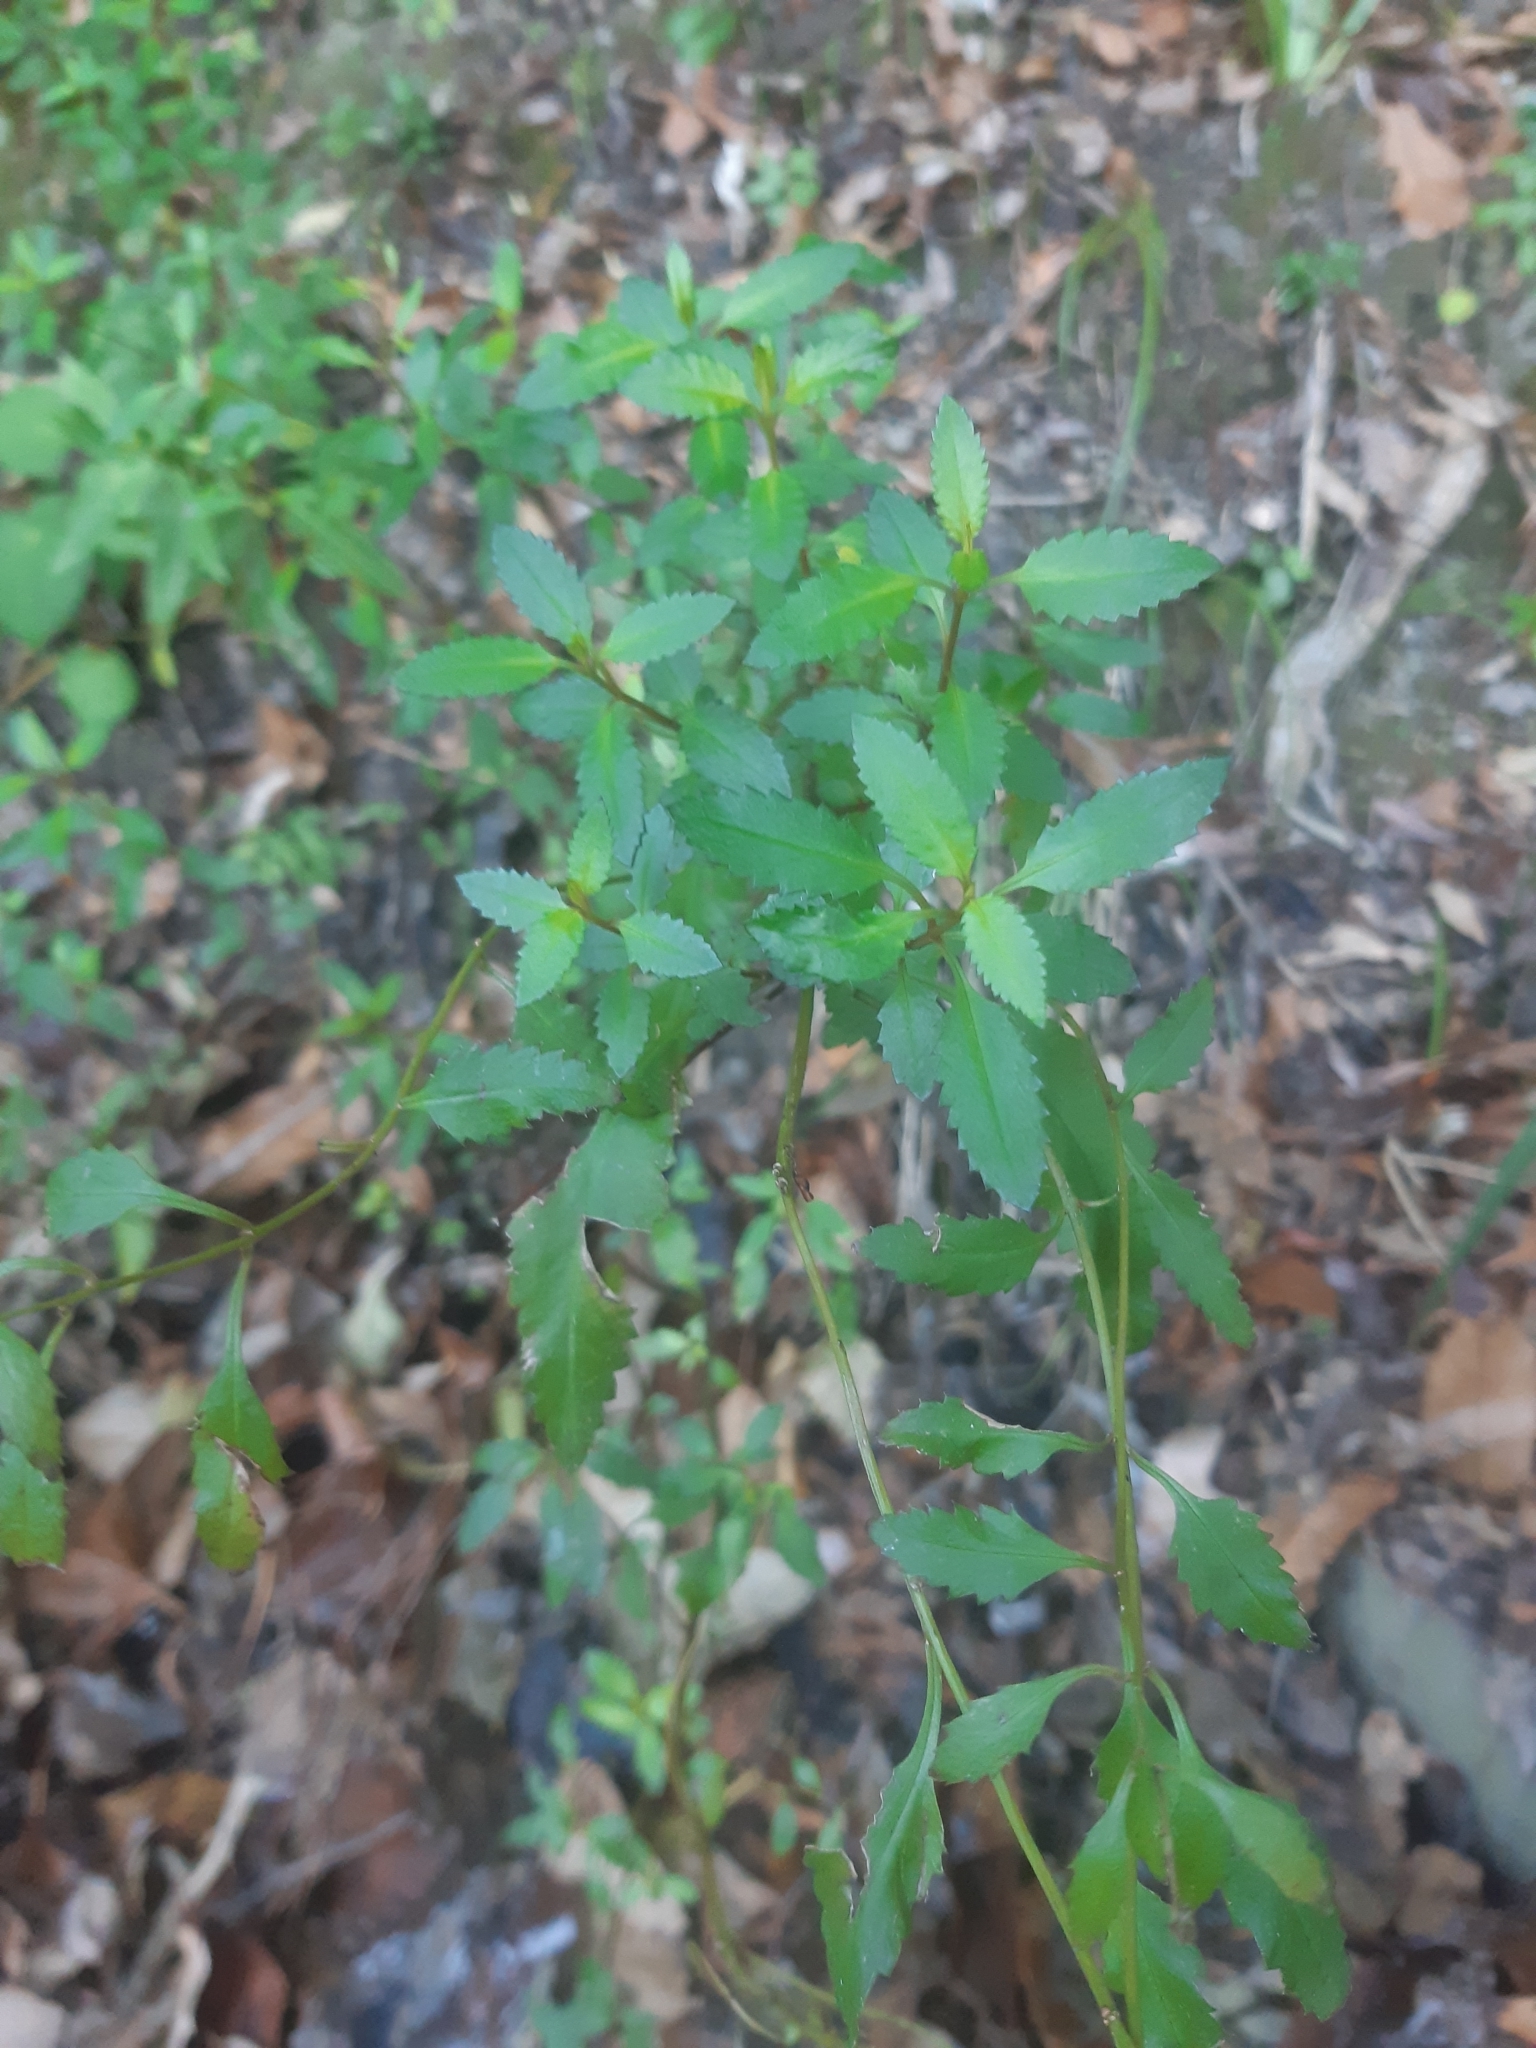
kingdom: Plantae
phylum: Tracheophyta
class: Magnoliopsida
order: Saxifragales
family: Haloragaceae
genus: Haloragis
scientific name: Haloragis erecta
